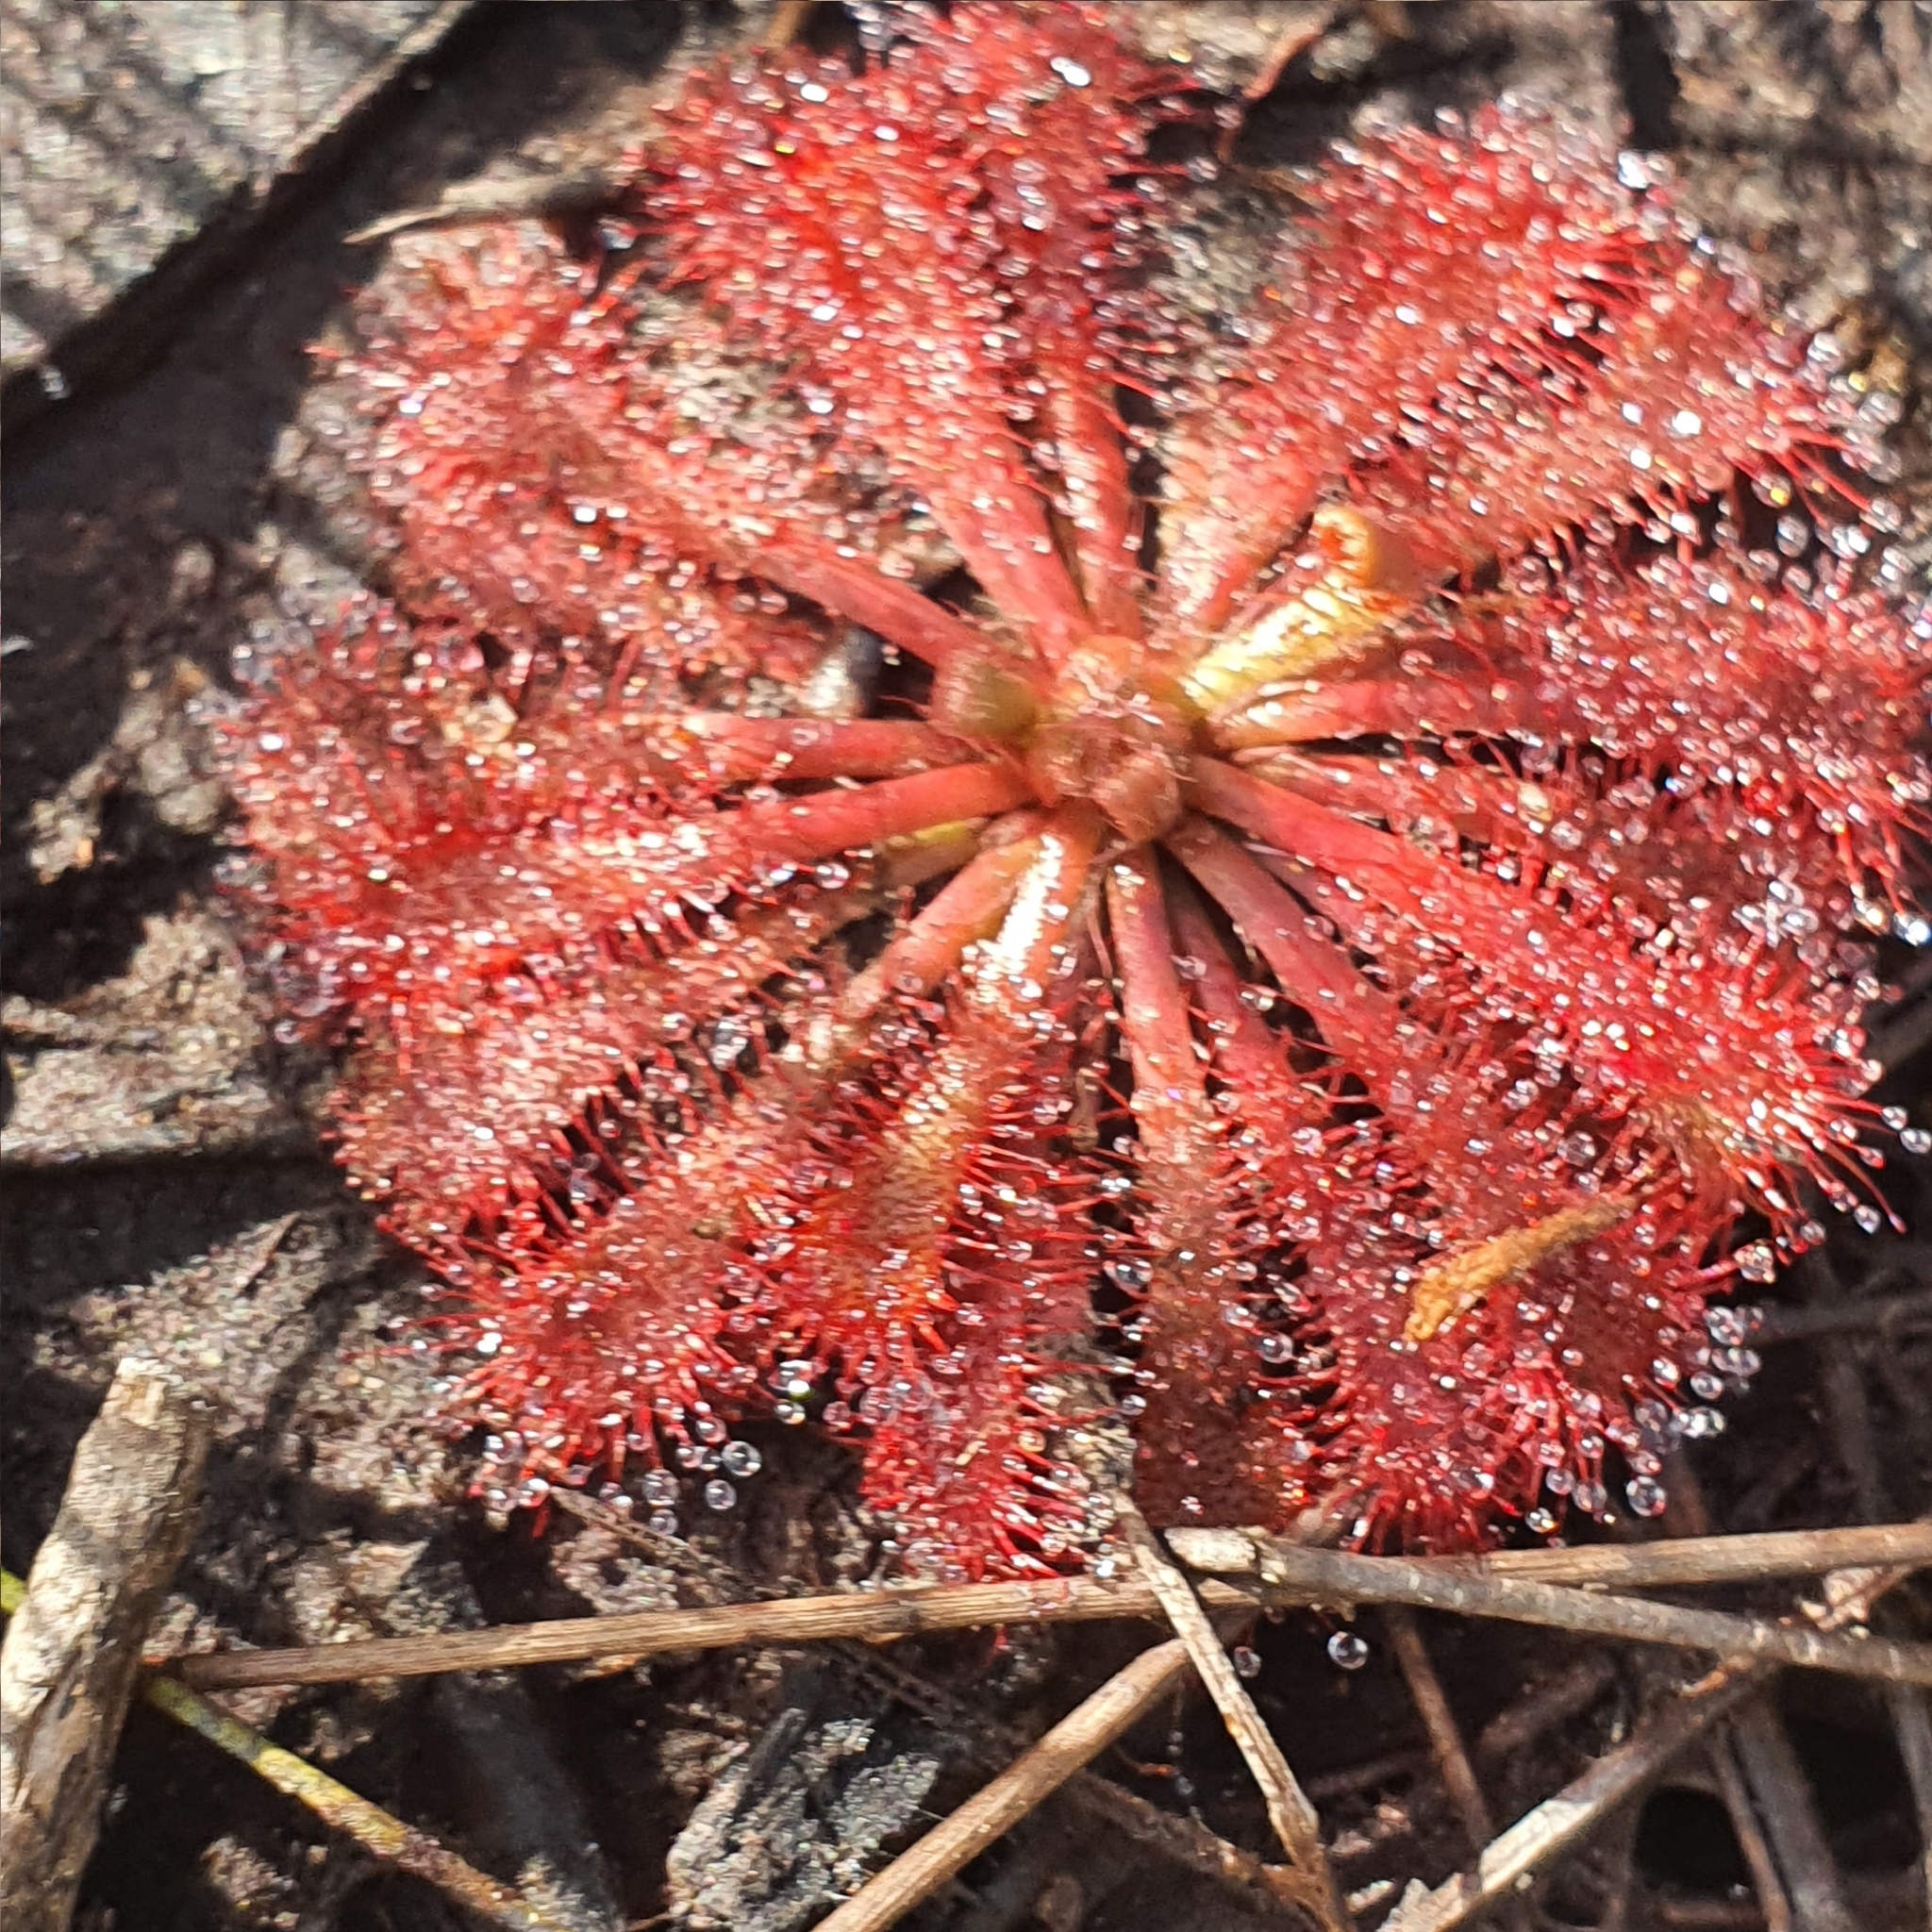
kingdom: Plantae
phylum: Tracheophyta
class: Magnoliopsida
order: Caryophyllales
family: Droseraceae
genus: Drosera
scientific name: Drosera spatulata
